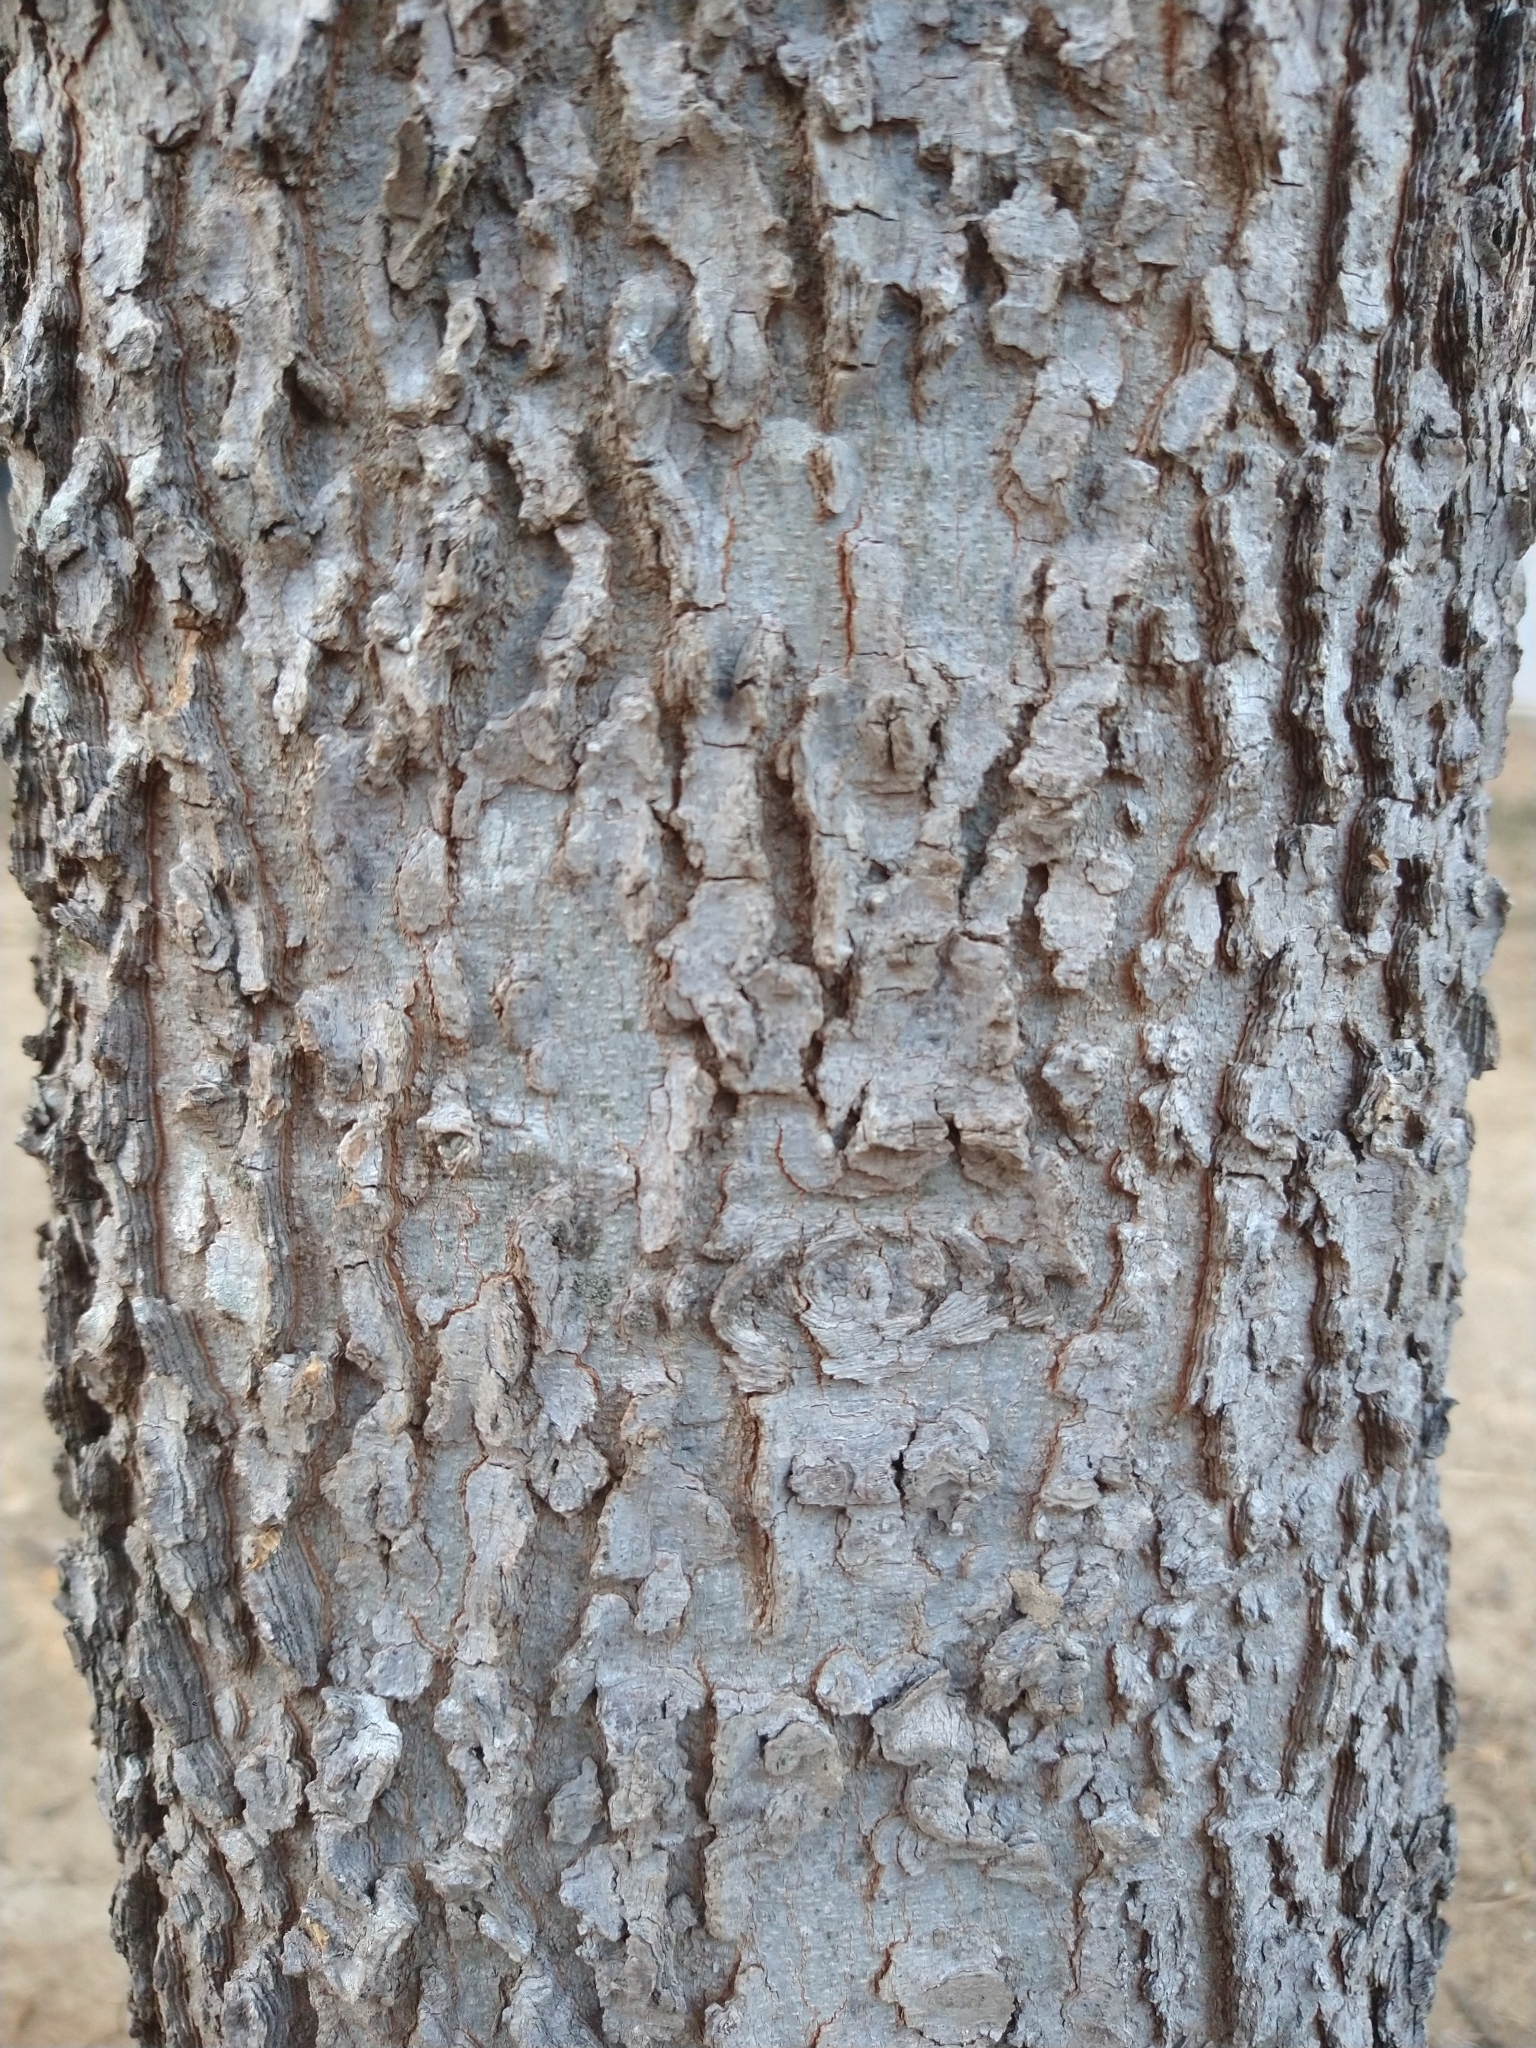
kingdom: Plantae
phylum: Tracheophyta
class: Magnoliopsida
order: Rosales
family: Cannabaceae
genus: Celtis
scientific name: Celtis laevigata
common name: Sugarberry
